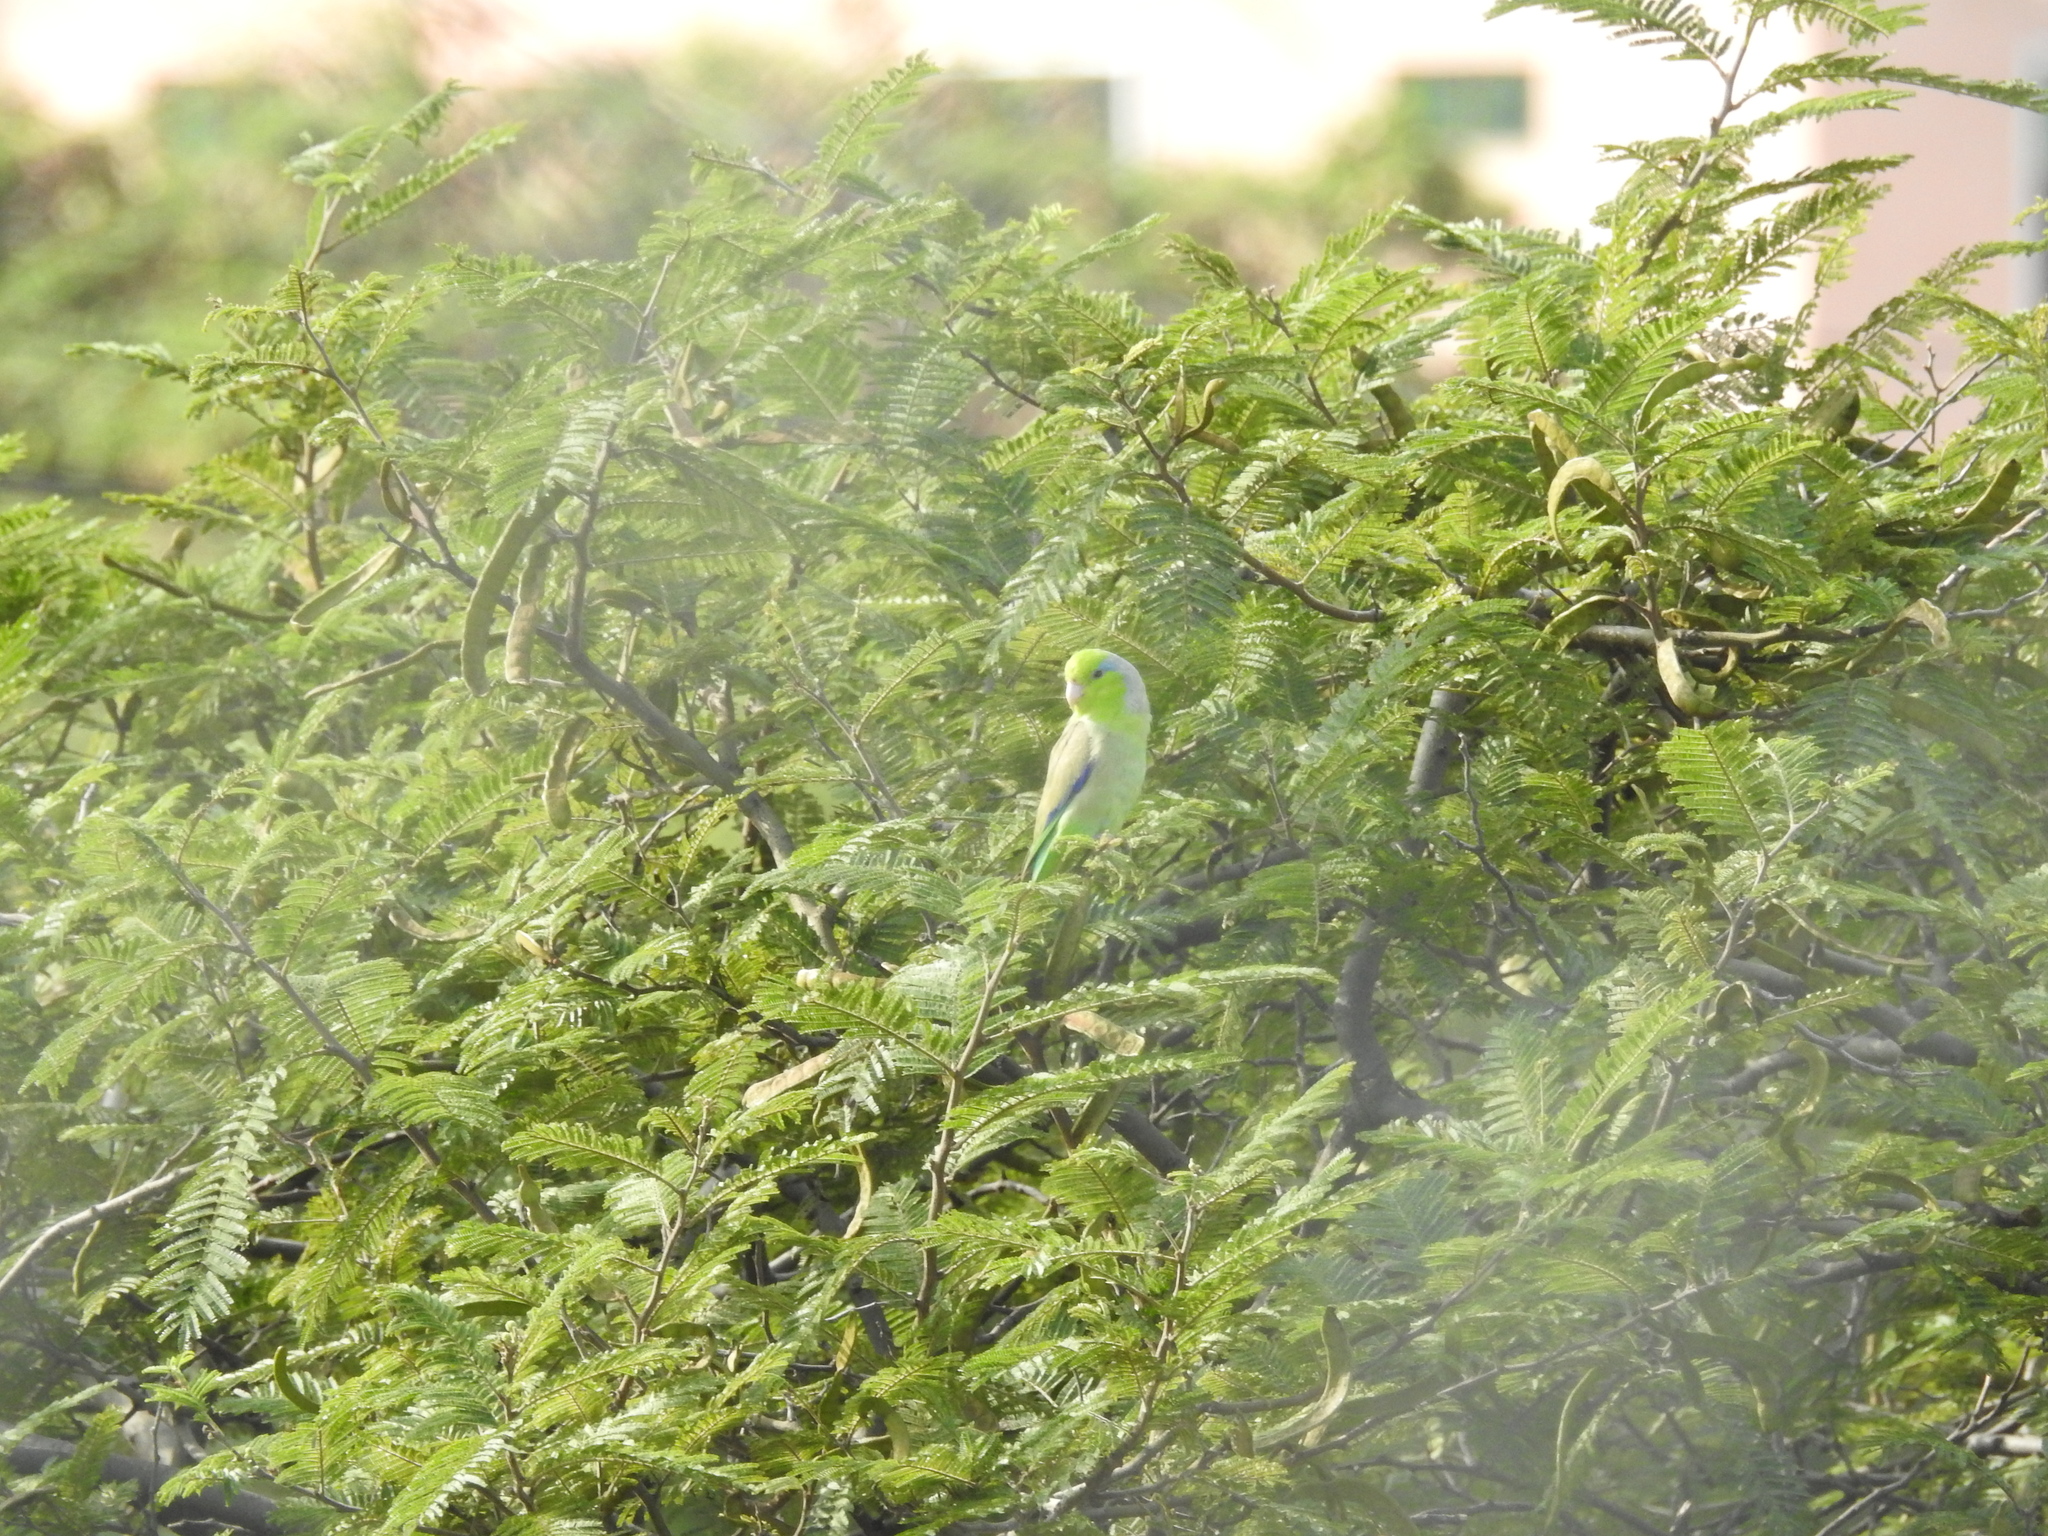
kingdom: Animalia
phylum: Chordata
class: Aves
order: Psittaciformes
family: Psittacidae
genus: Forpus
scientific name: Forpus coelestis
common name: Pacific parrotlet
